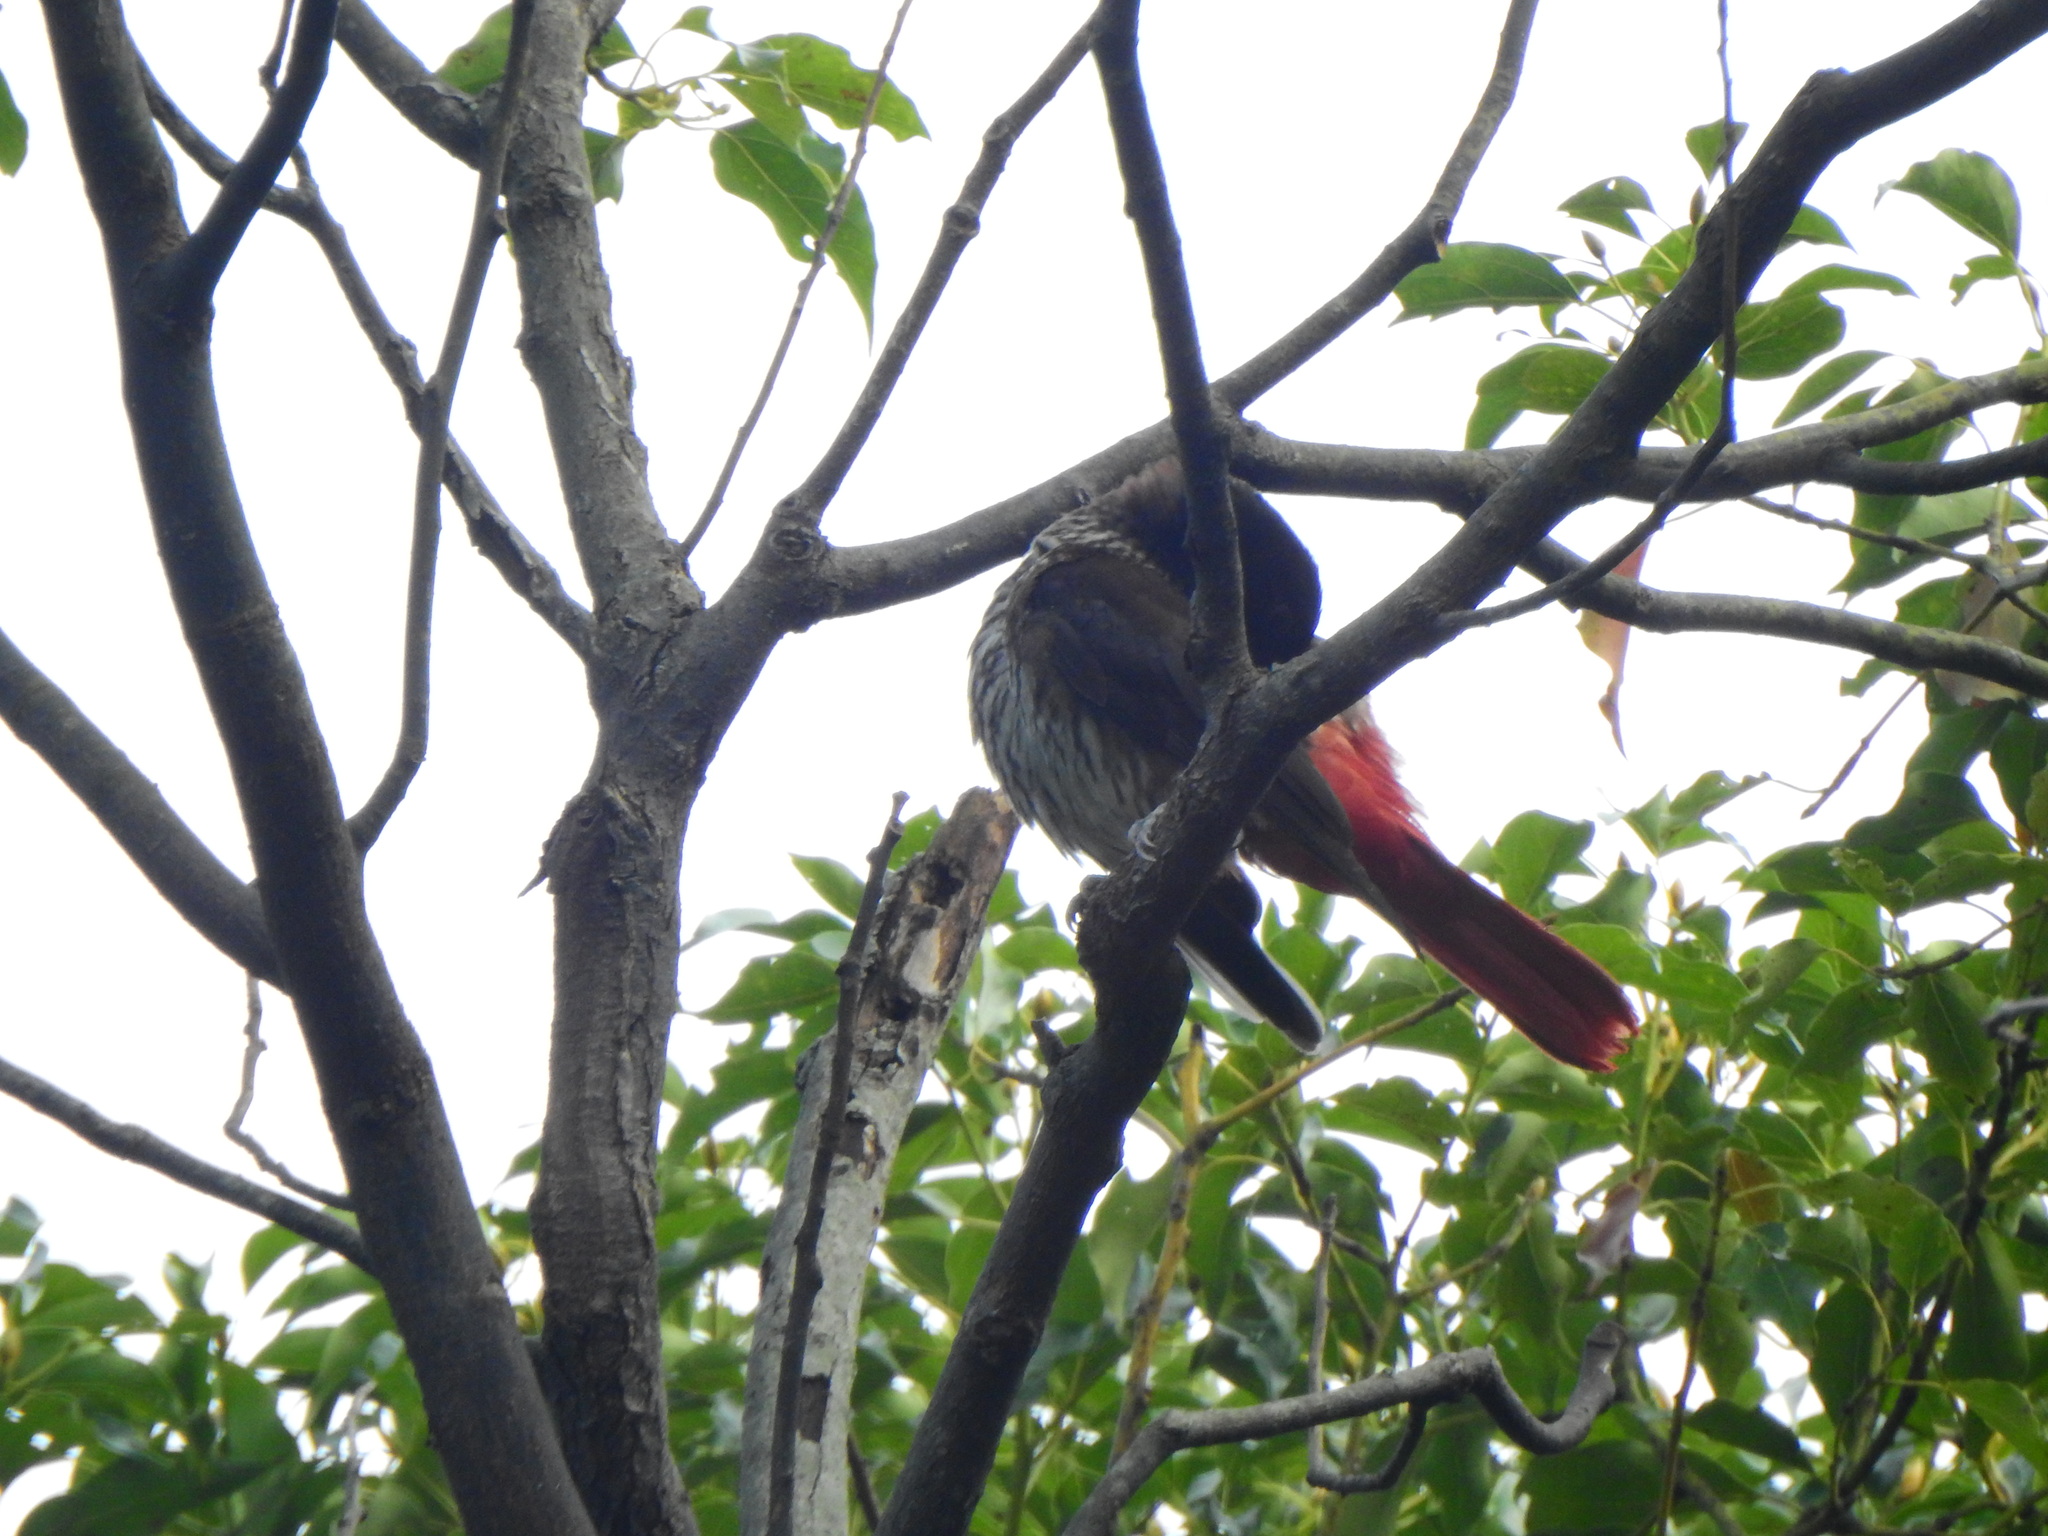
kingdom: Animalia
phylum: Chordata
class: Aves
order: Passeriformes
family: Oriolidae
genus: Oriolus
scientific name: Oriolus traillii
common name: Maroon oriole
